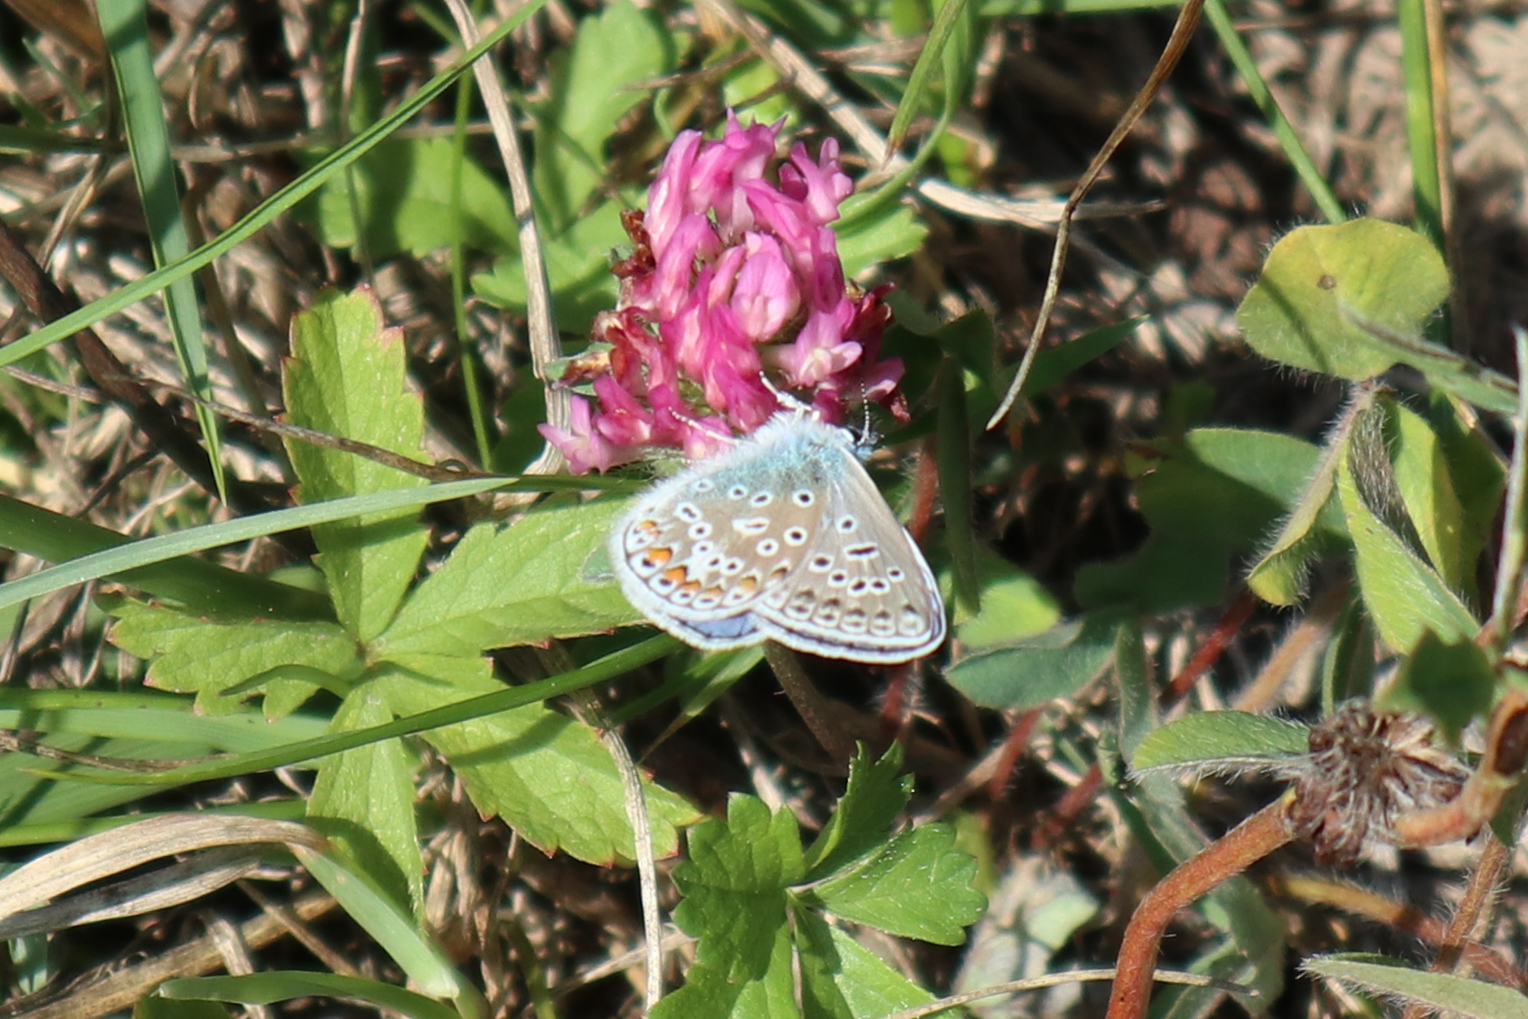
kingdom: Animalia
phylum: Arthropoda
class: Insecta
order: Lepidoptera
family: Lycaenidae
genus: Polyommatus
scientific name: Polyommatus icarus
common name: Common blue
